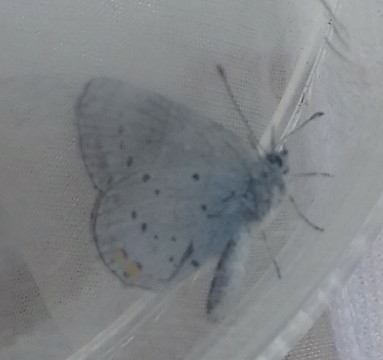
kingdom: Animalia
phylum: Arthropoda
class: Insecta
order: Lepidoptera
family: Lycaenidae
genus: Elkalyce
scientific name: Elkalyce argiades
